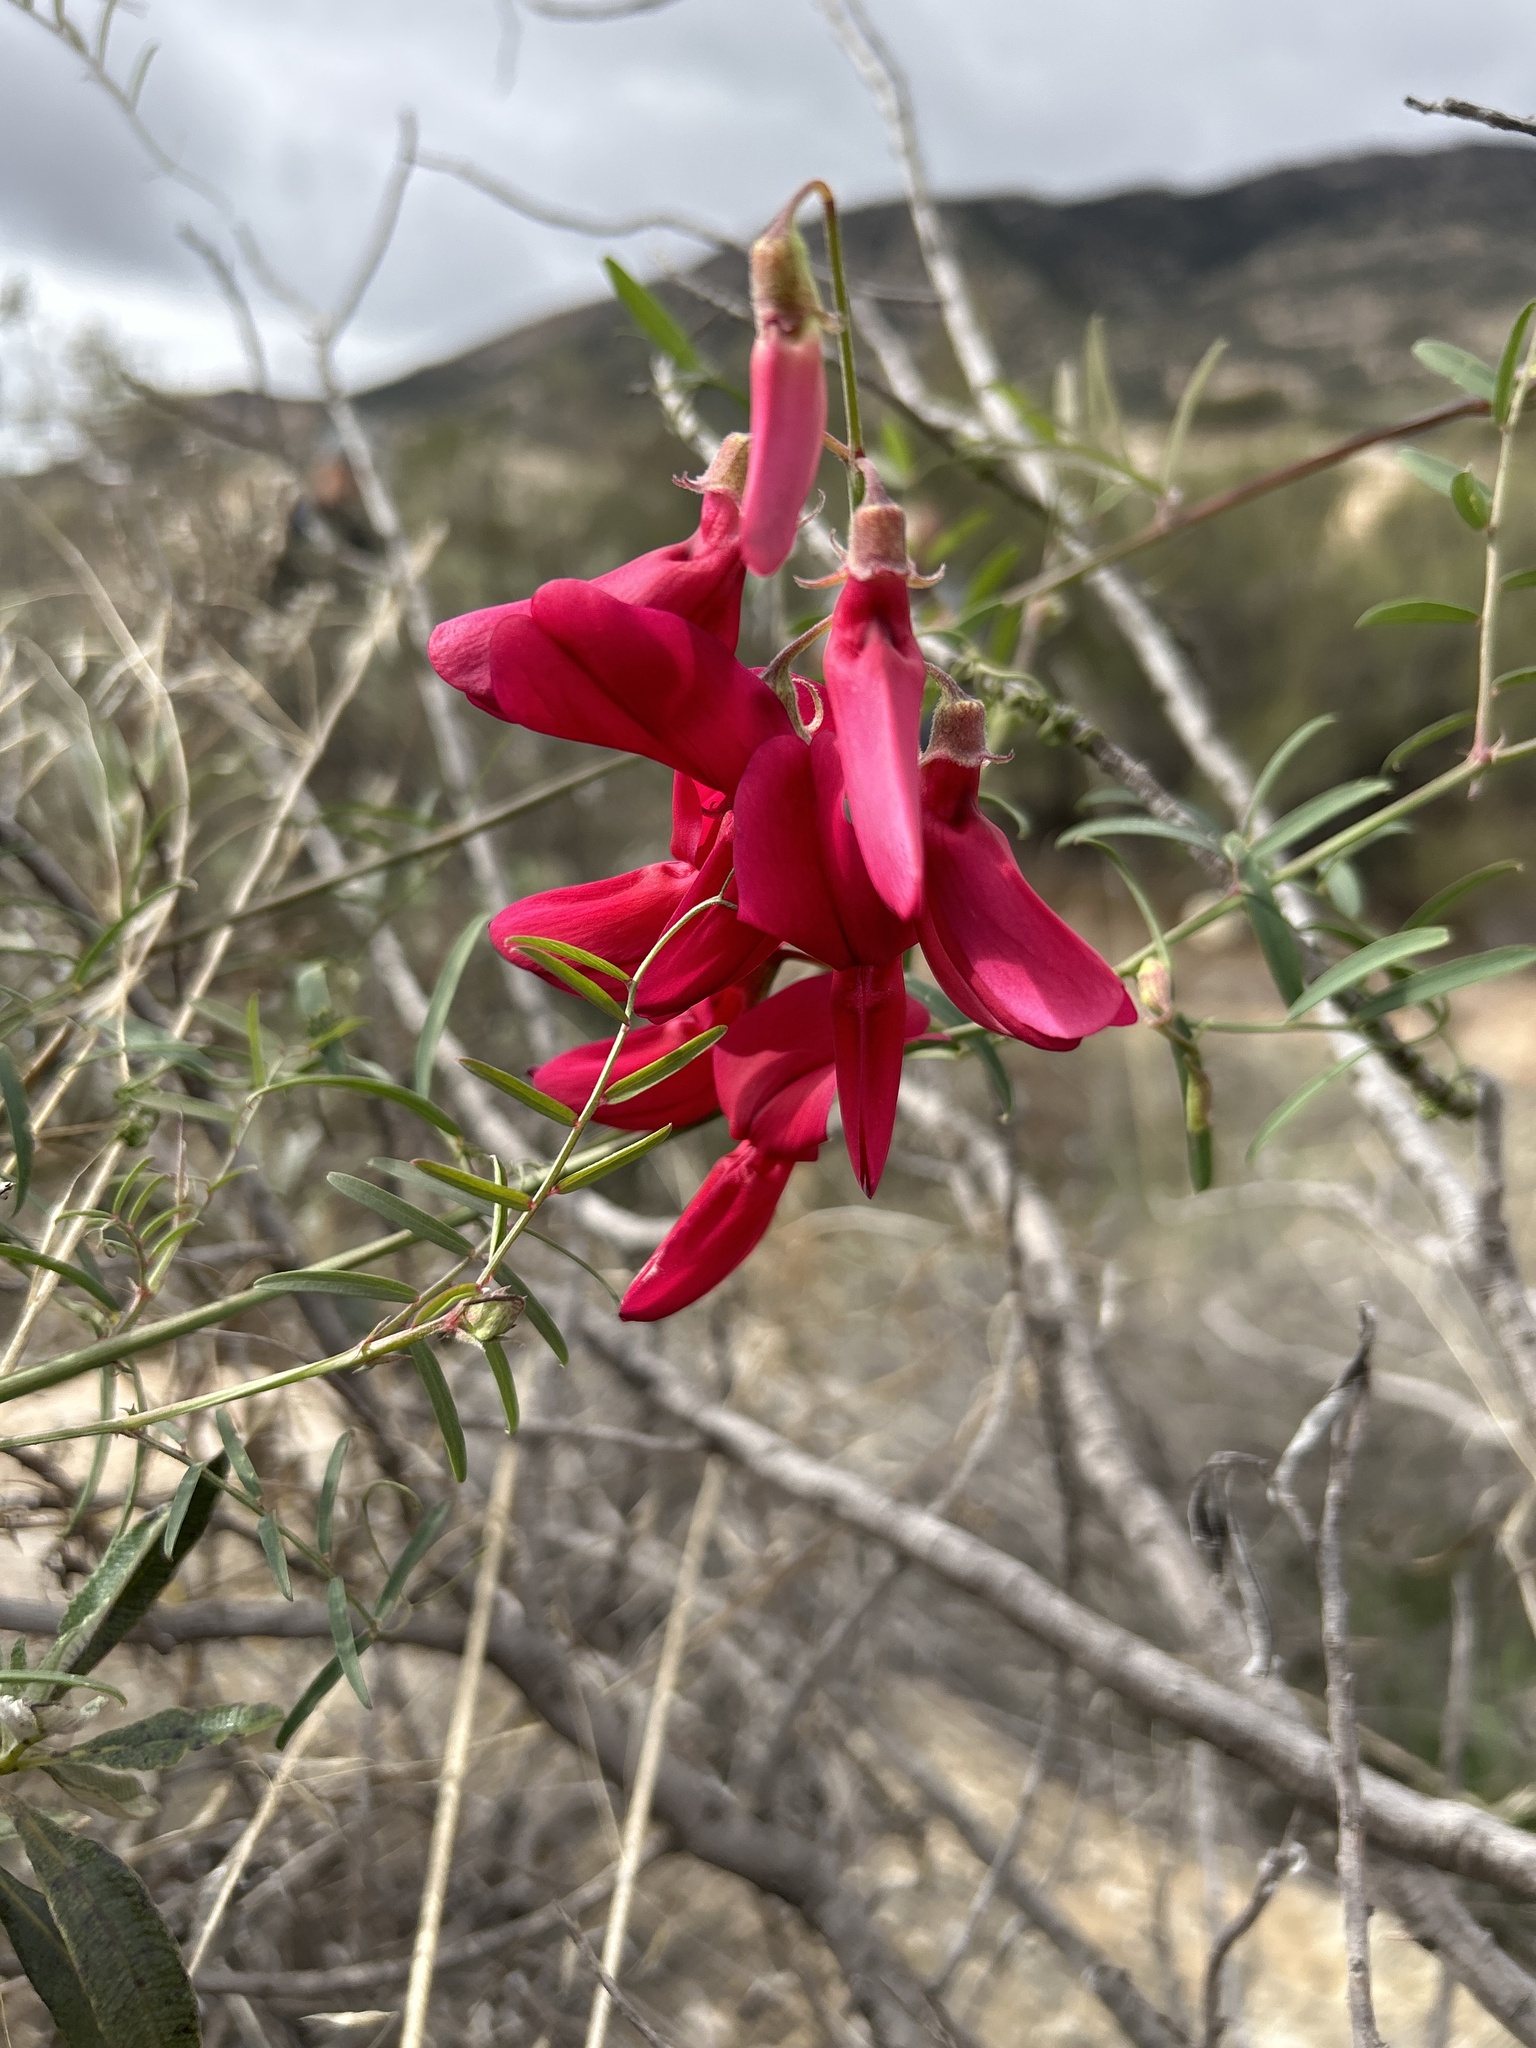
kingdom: Plantae
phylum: Tracheophyta
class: Magnoliopsida
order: Fabales
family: Fabaceae
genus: Lathyrus
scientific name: Lathyrus splendens
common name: Campo-pea
